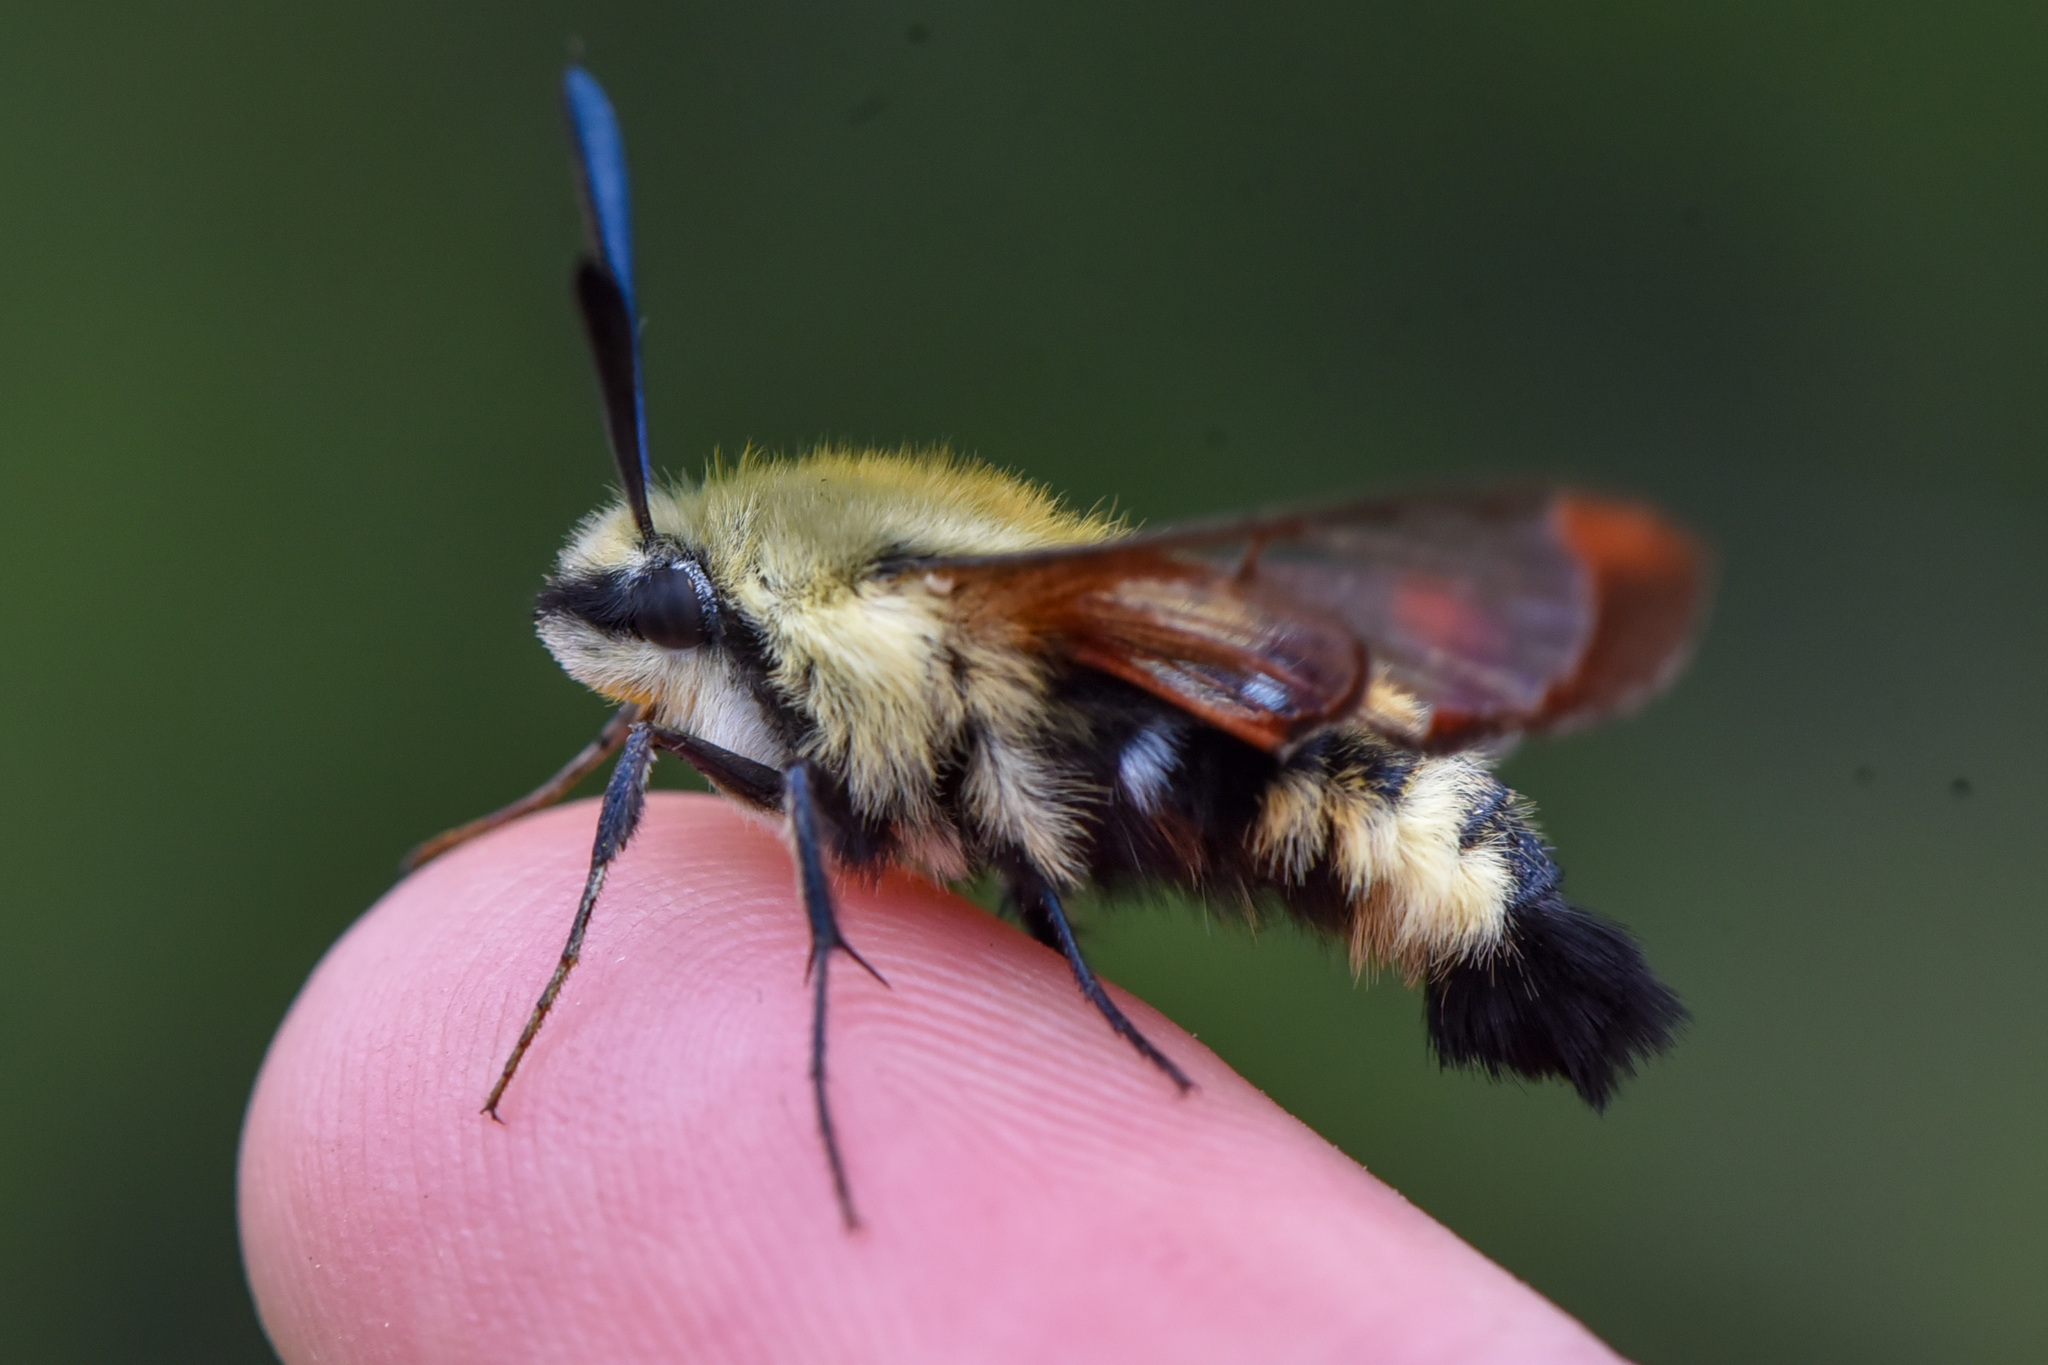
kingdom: Animalia
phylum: Arthropoda
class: Insecta
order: Lepidoptera
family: Sphingidae
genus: Hemaris
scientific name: Hemaris thetis
